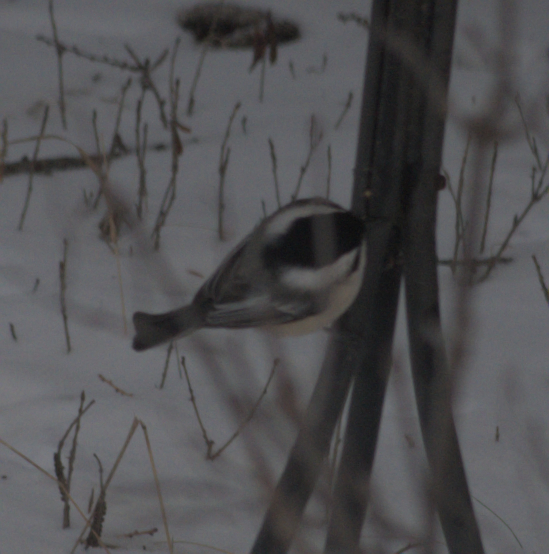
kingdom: Animalia
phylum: Chordata
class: Aves
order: Passeriformes
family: Paridae
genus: Poecile
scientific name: Poecile atricapillus
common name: Black-capped chickadee
